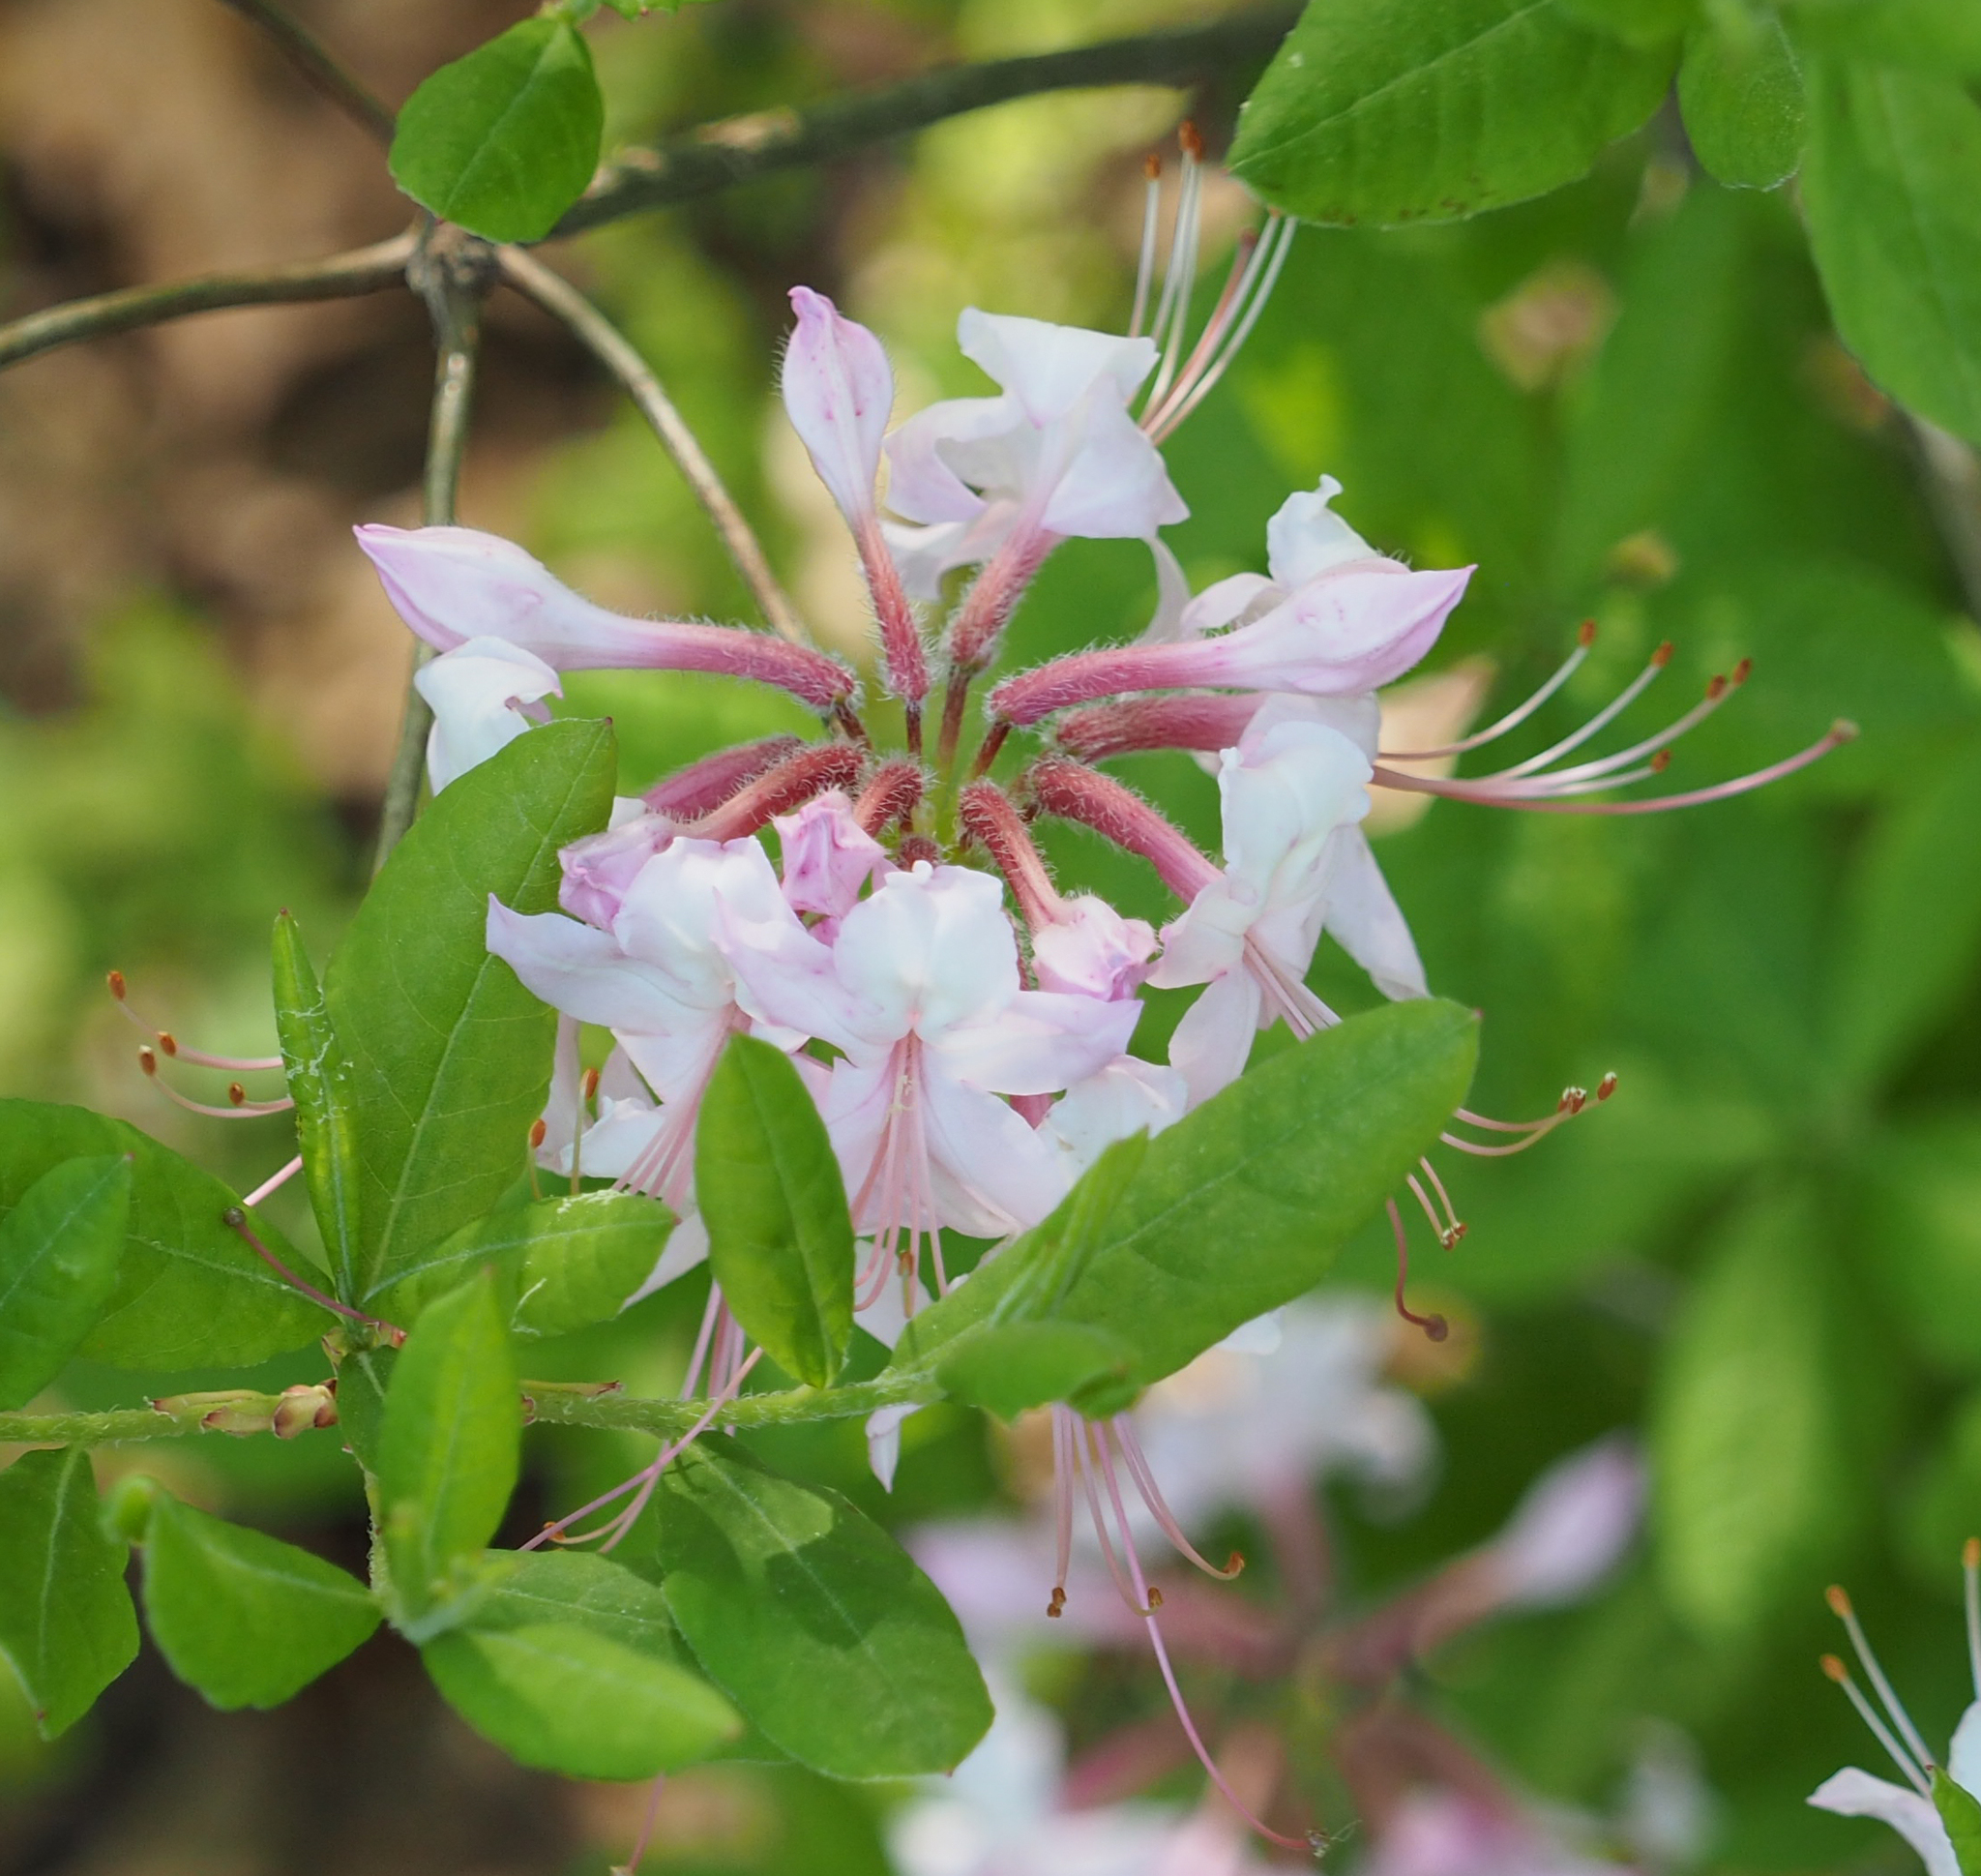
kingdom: Plantae
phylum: Tracheophyta
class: Magnoliopsida
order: Ericales
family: Ericaceae
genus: Rhododendron
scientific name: Rhododendron periclymenoides
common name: Election-pink
